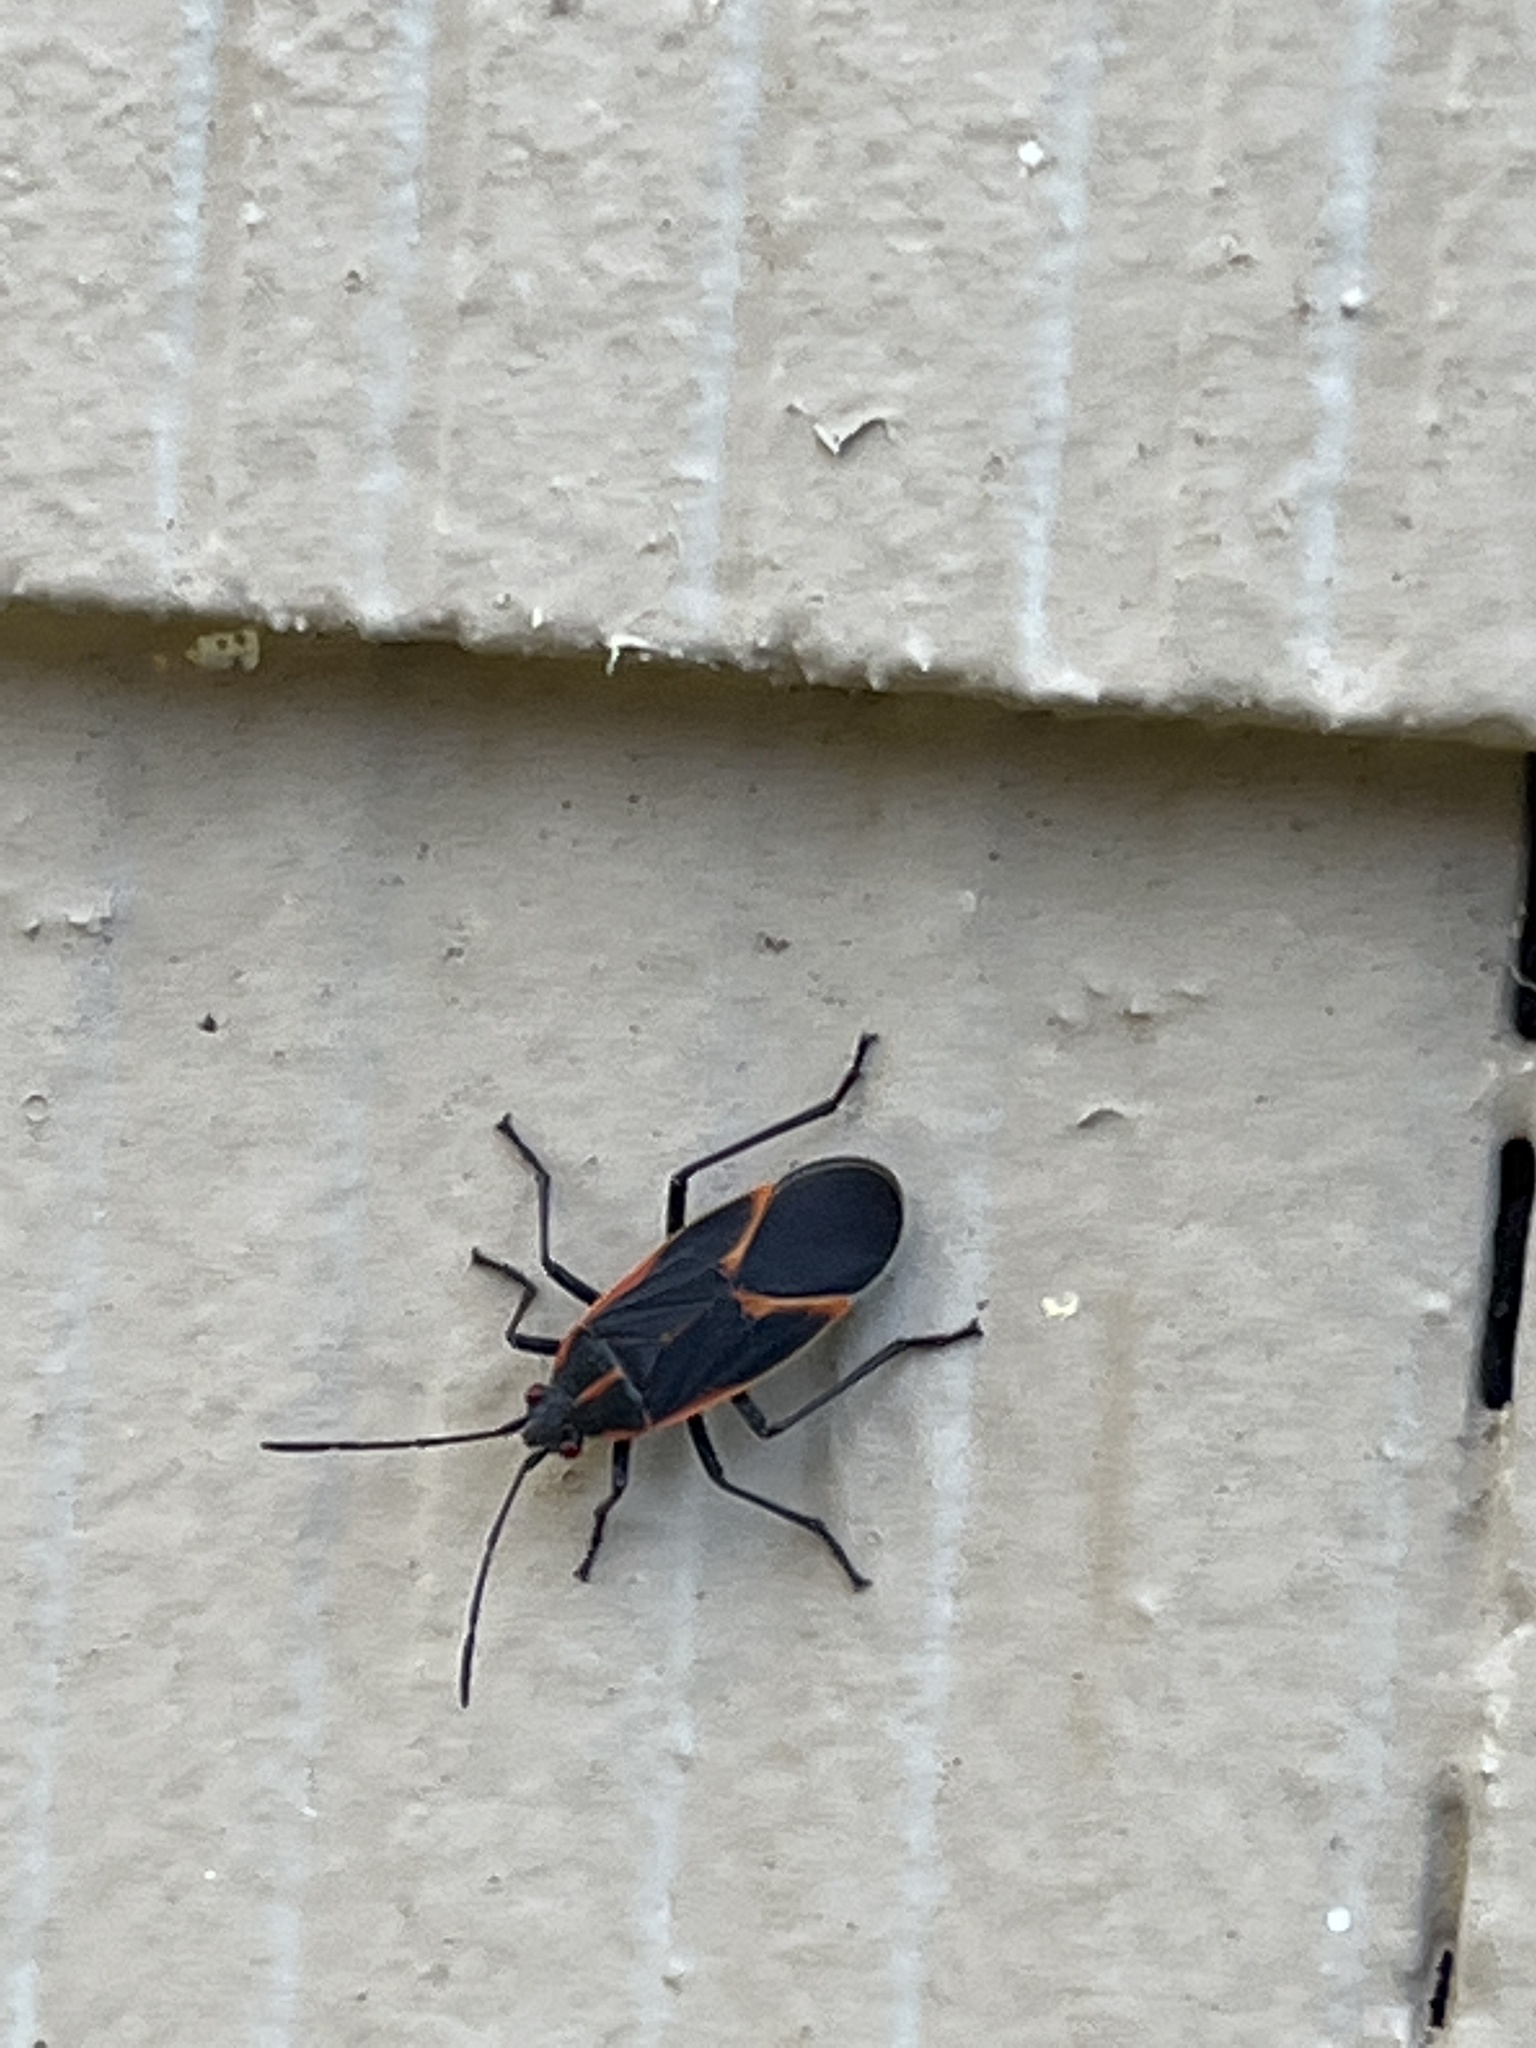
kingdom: Animalia
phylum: Arthropoda
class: Insecta
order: Hemiptera
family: Rhopalidae
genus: Boisea
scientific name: Boisea trivittata
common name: Boxelder bug
